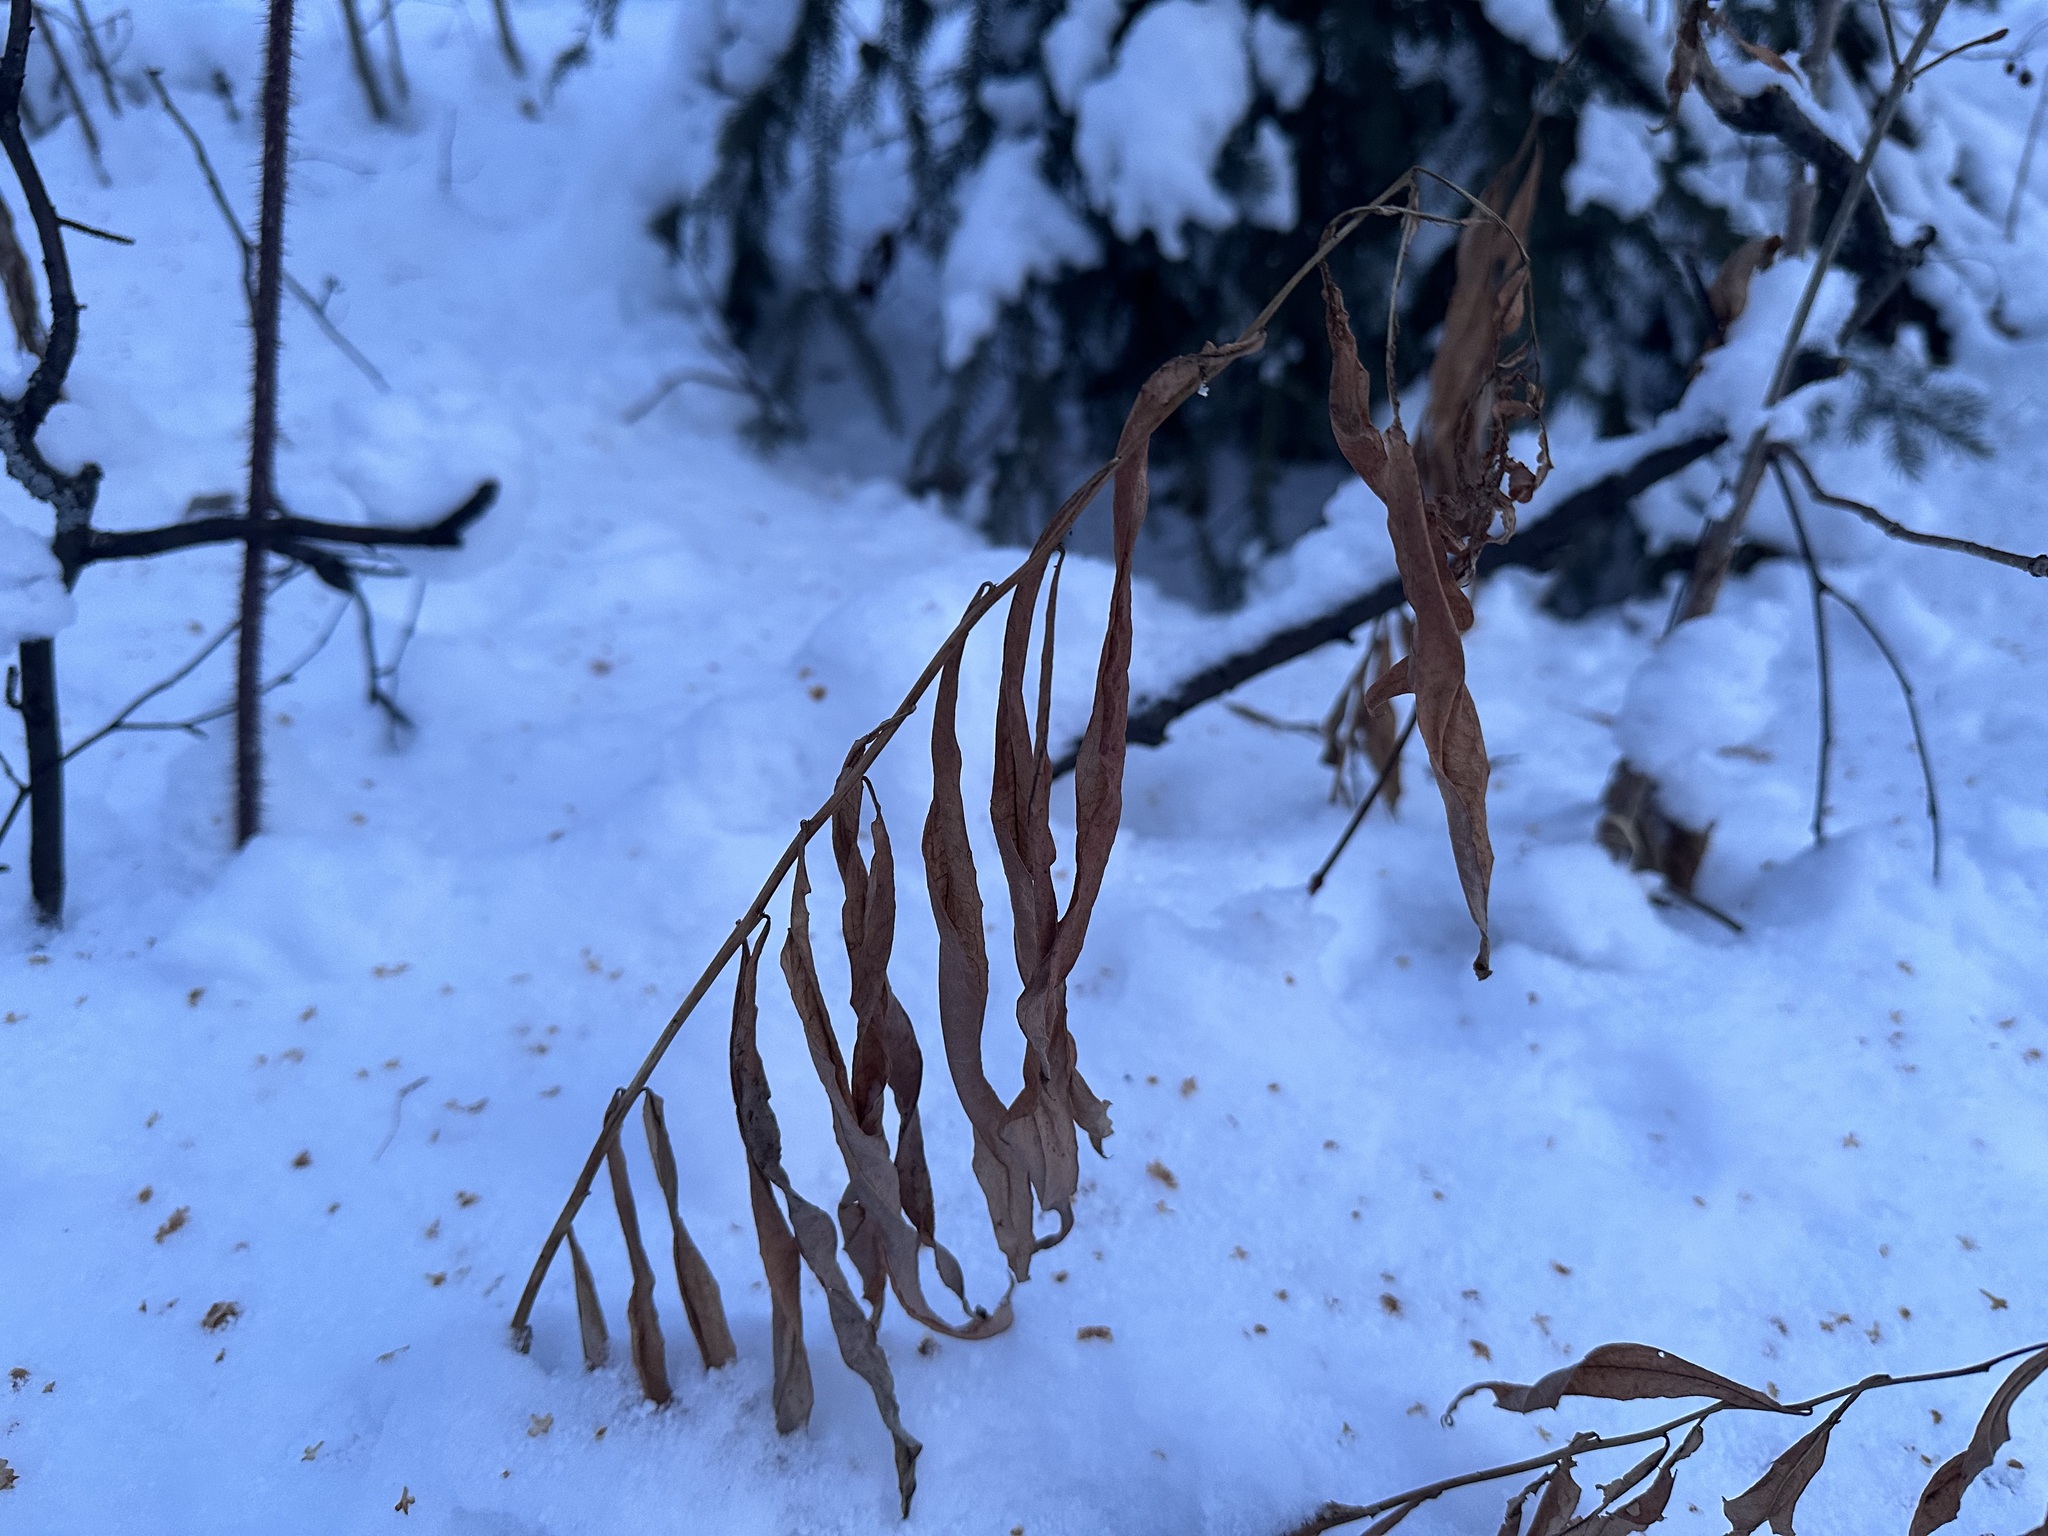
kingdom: Plantae
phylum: Tracheophyta
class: Magnoliopsida
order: Myrtales
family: Onagraceae
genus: Chamaenerion
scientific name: Chamaenerion angustifolium
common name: Fireweed
